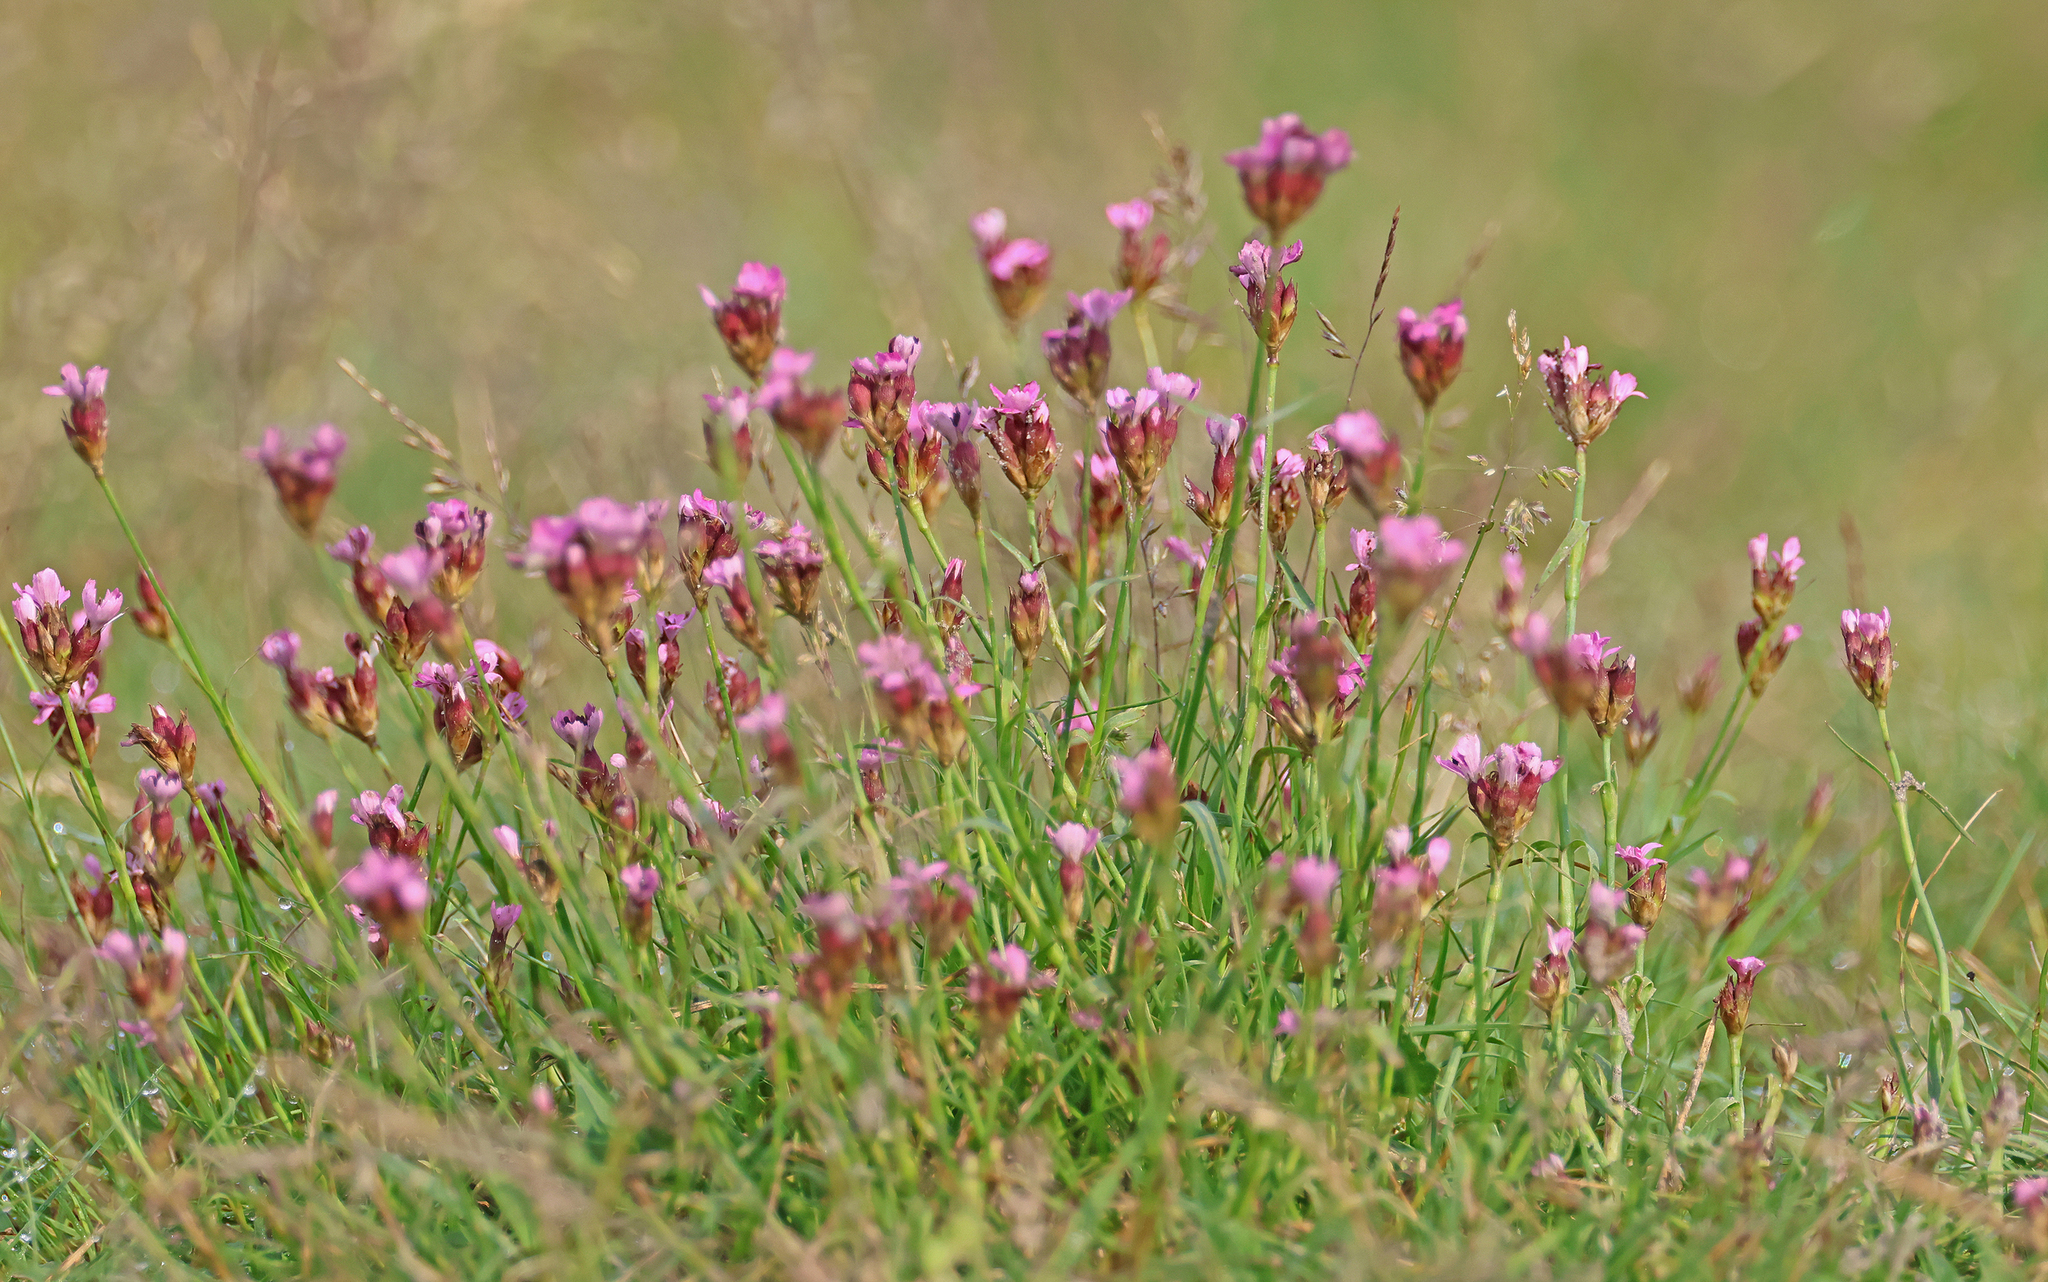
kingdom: Plantae
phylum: Tracheophyta
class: Magnoliopsida
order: Caryophyllales
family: Caryophyllaceae
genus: Dianthus
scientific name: Dianthus pontederae
